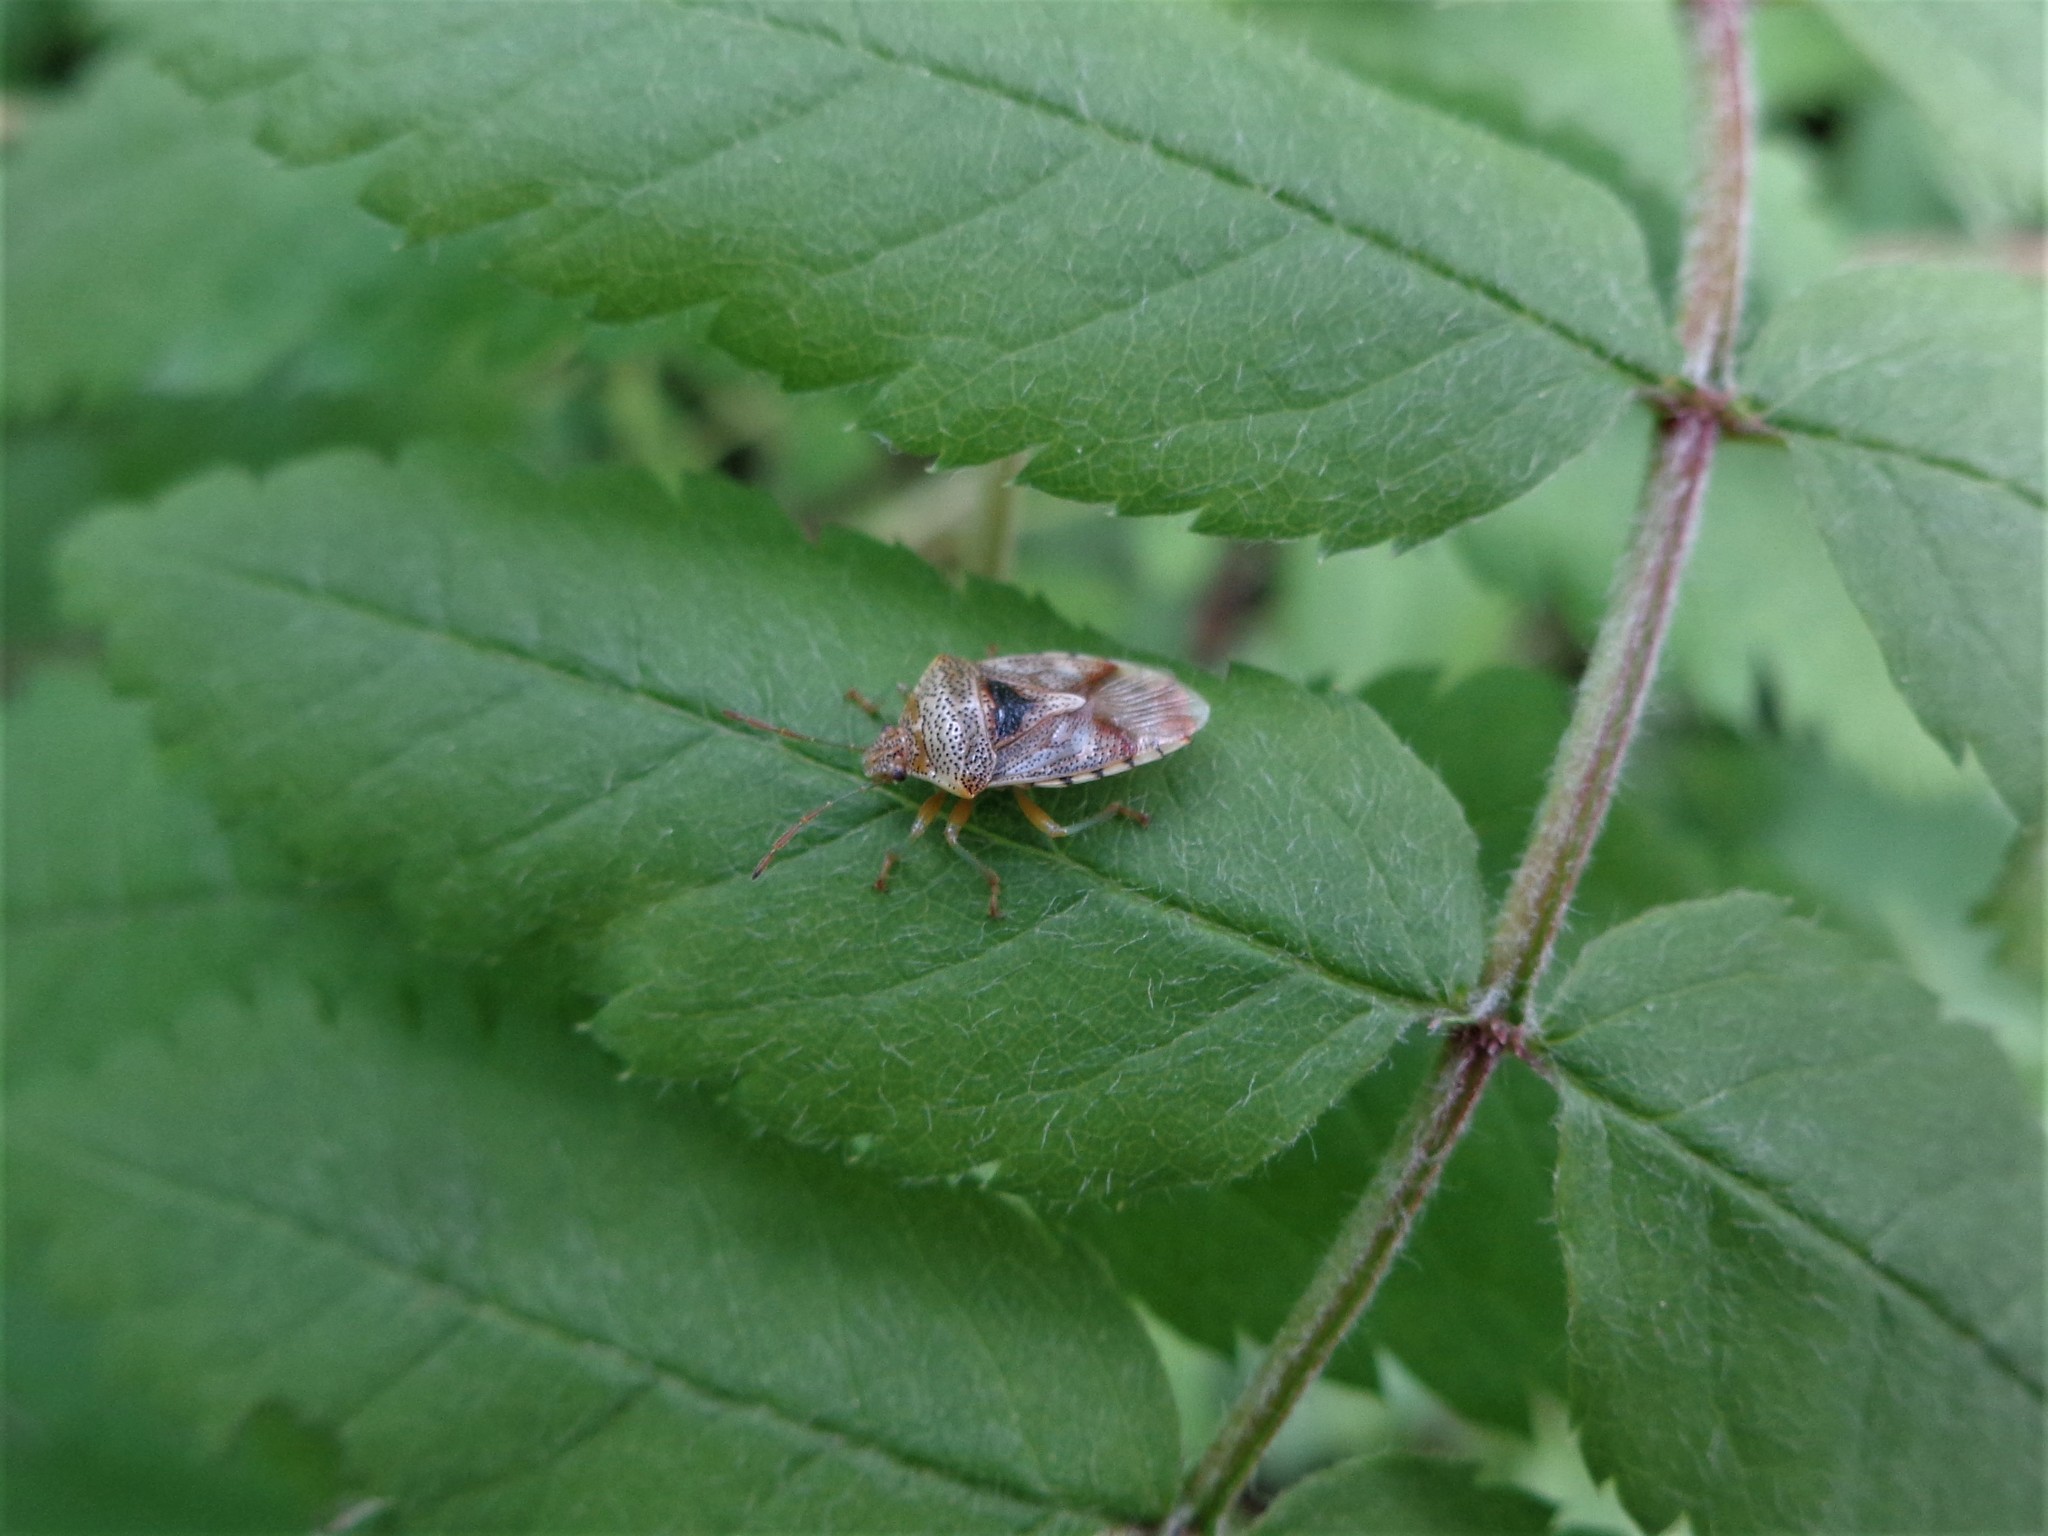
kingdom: Animalia
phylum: Arthropoda
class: Insecta
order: Hemiptera
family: Acanthosomatidae
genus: Elasmucha
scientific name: Elasmucha grisea
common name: Parent bug
